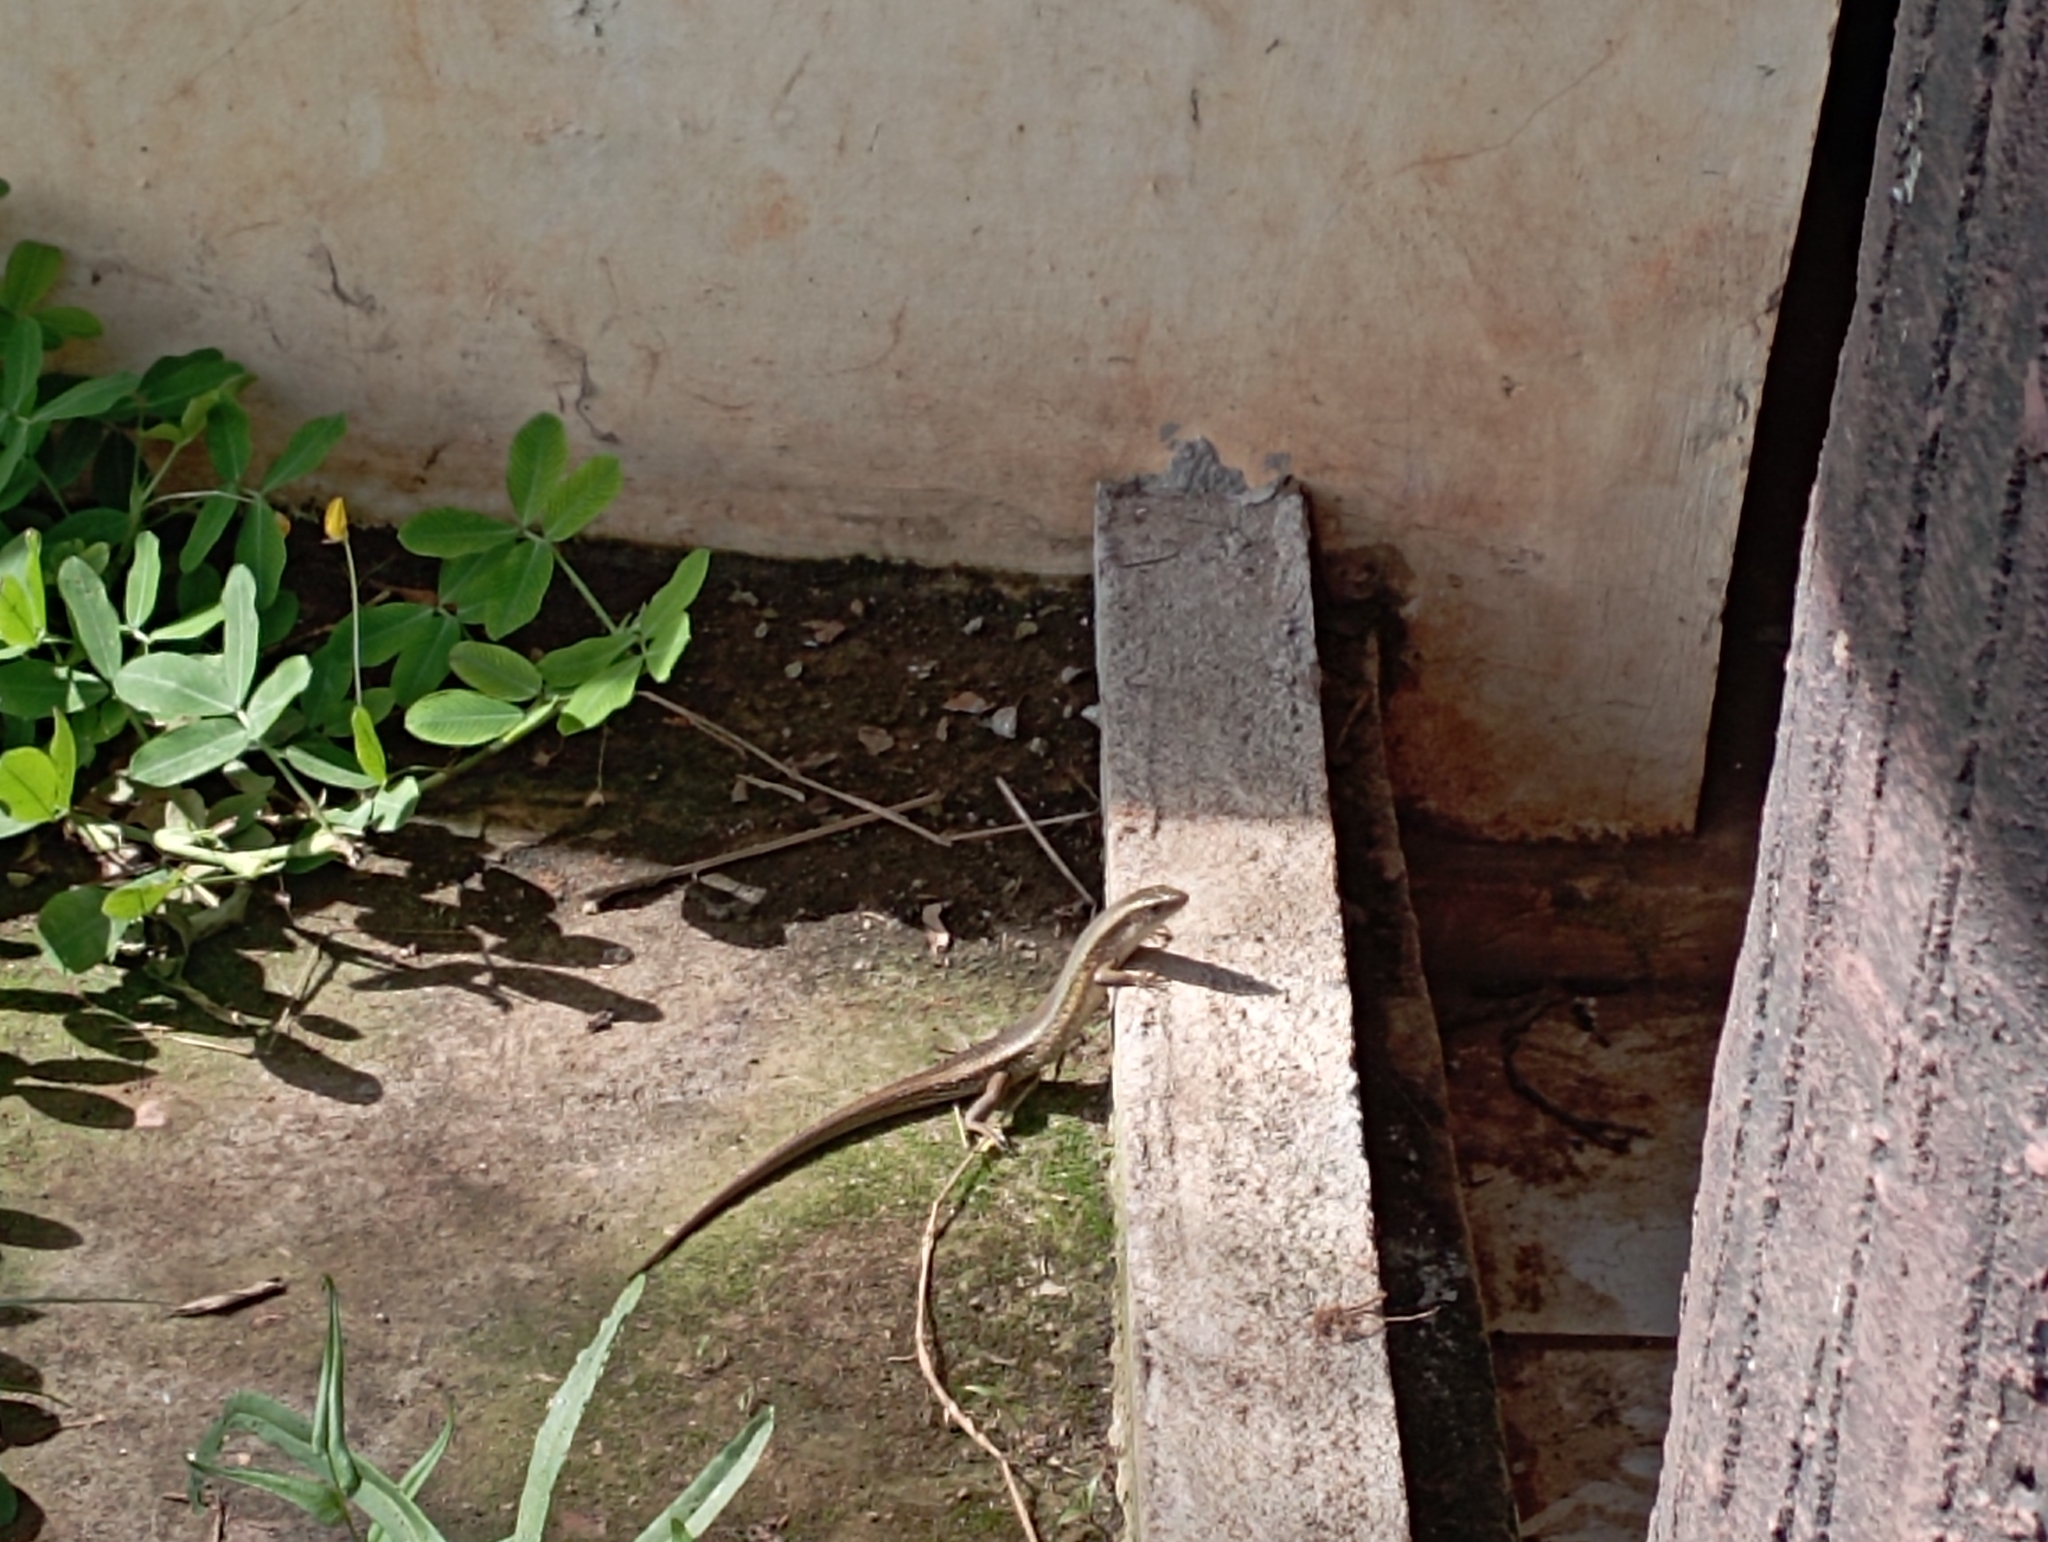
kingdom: Animalia
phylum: Chordata
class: Squamata
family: Scincidae
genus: Eutropis
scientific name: Eutropis multifasciata
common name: Common mabuya
